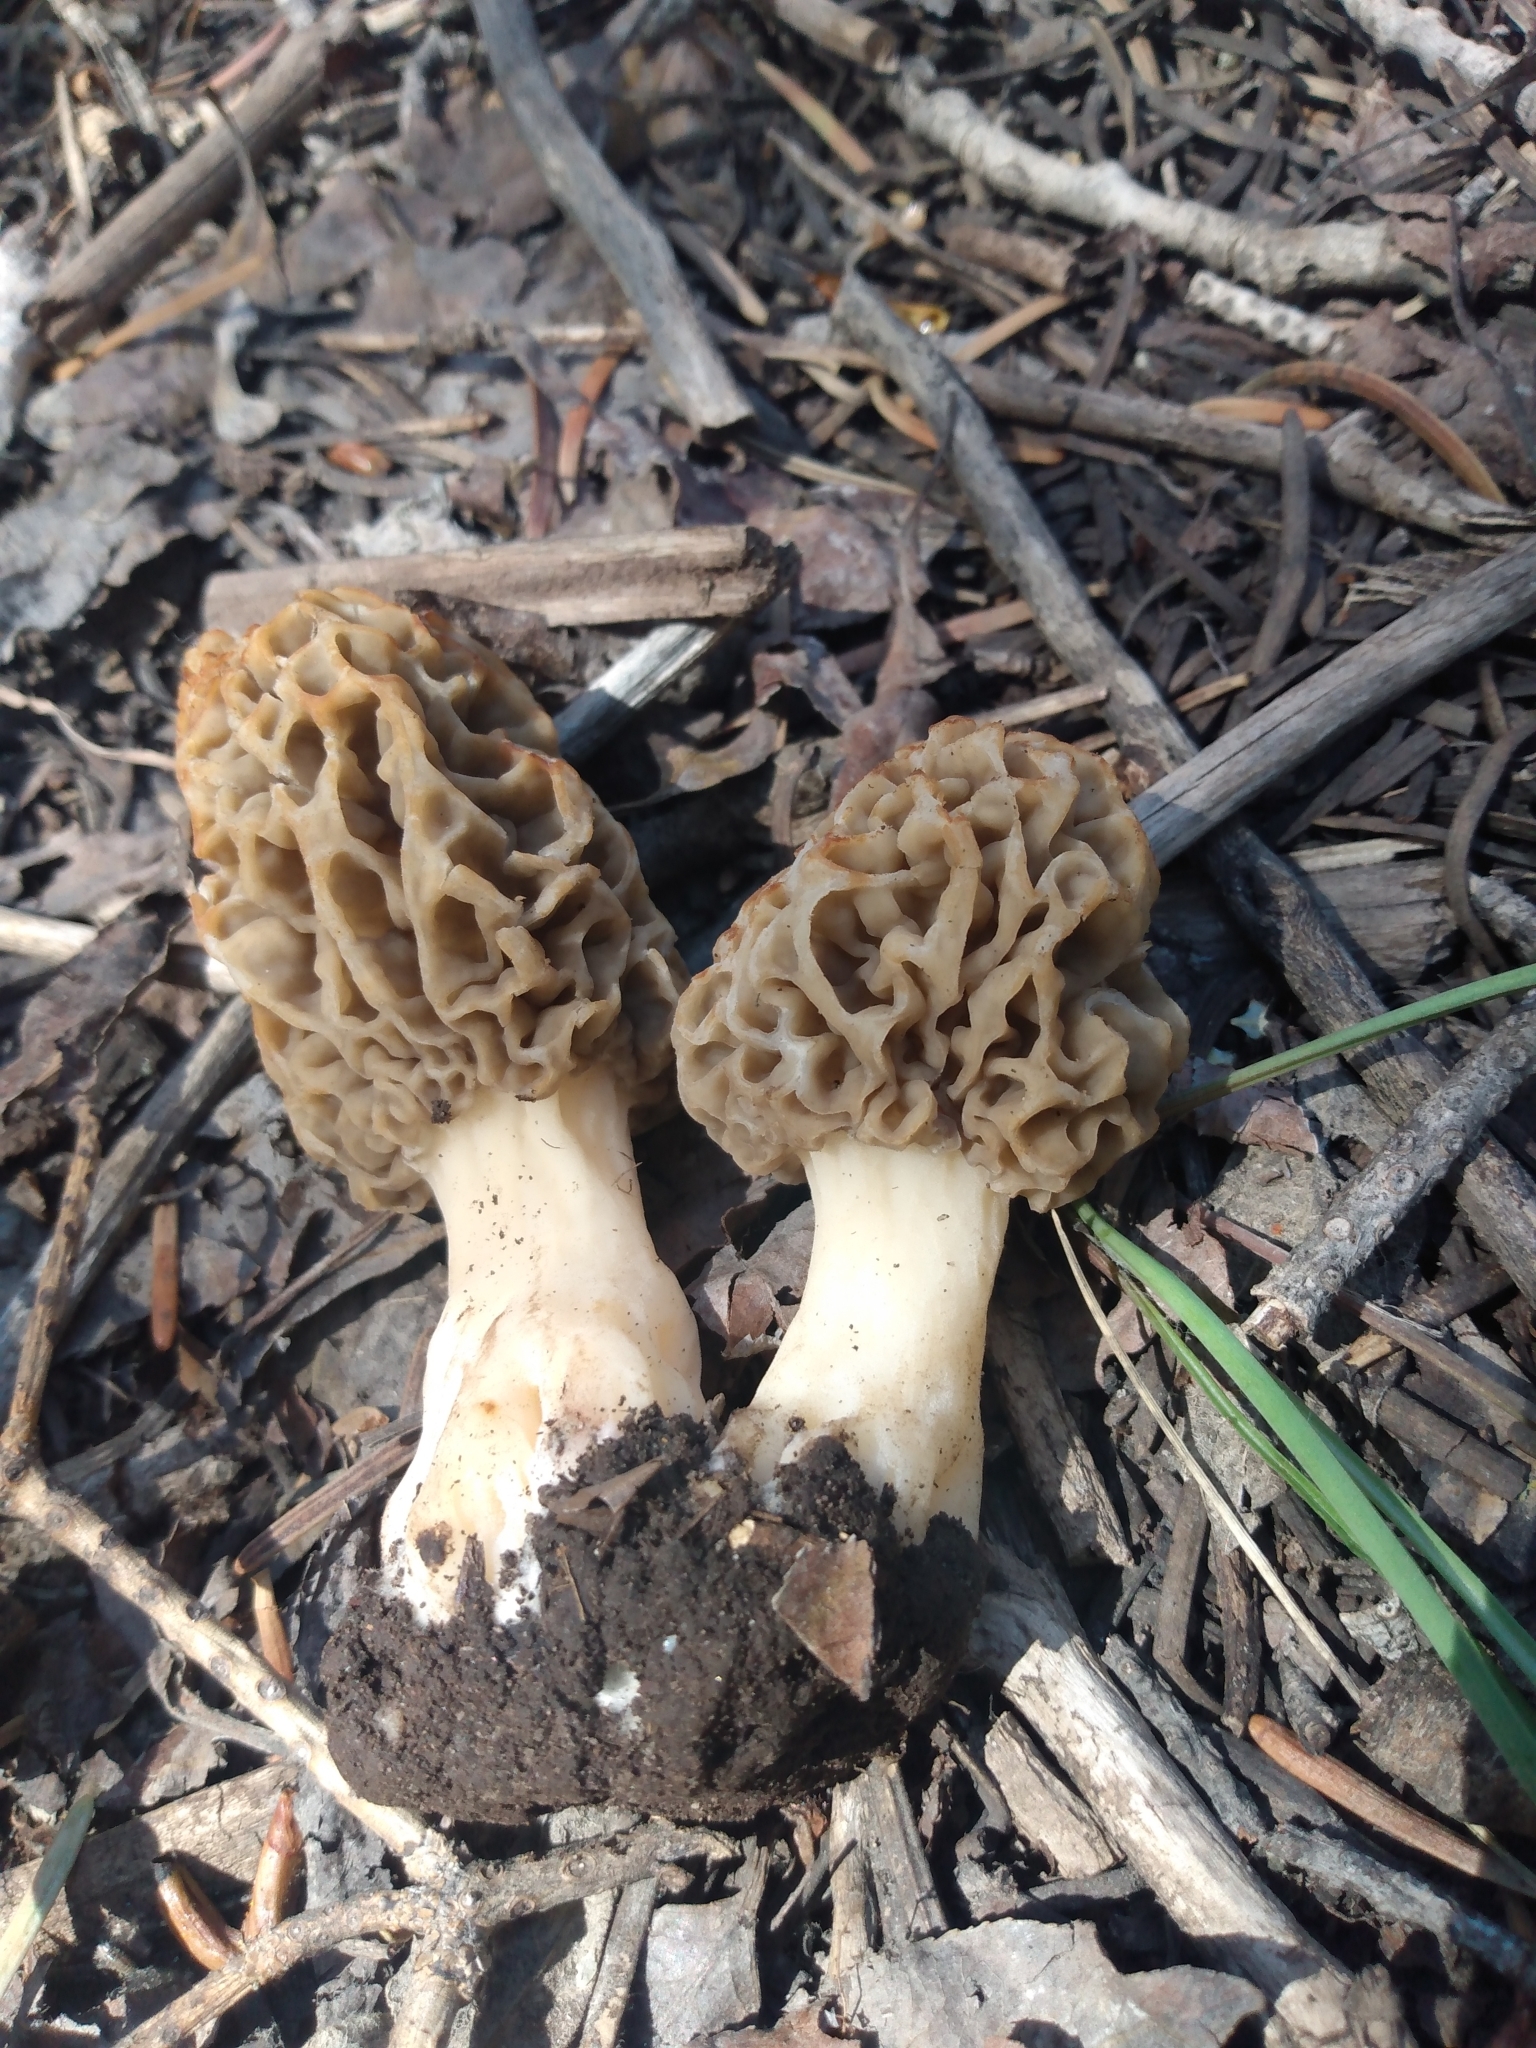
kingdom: Fungi
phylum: Ascomycota
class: Pezizomycetes
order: Pezizales
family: Morchellaceae
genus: Morchella
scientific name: Morchella americana
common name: White morel
